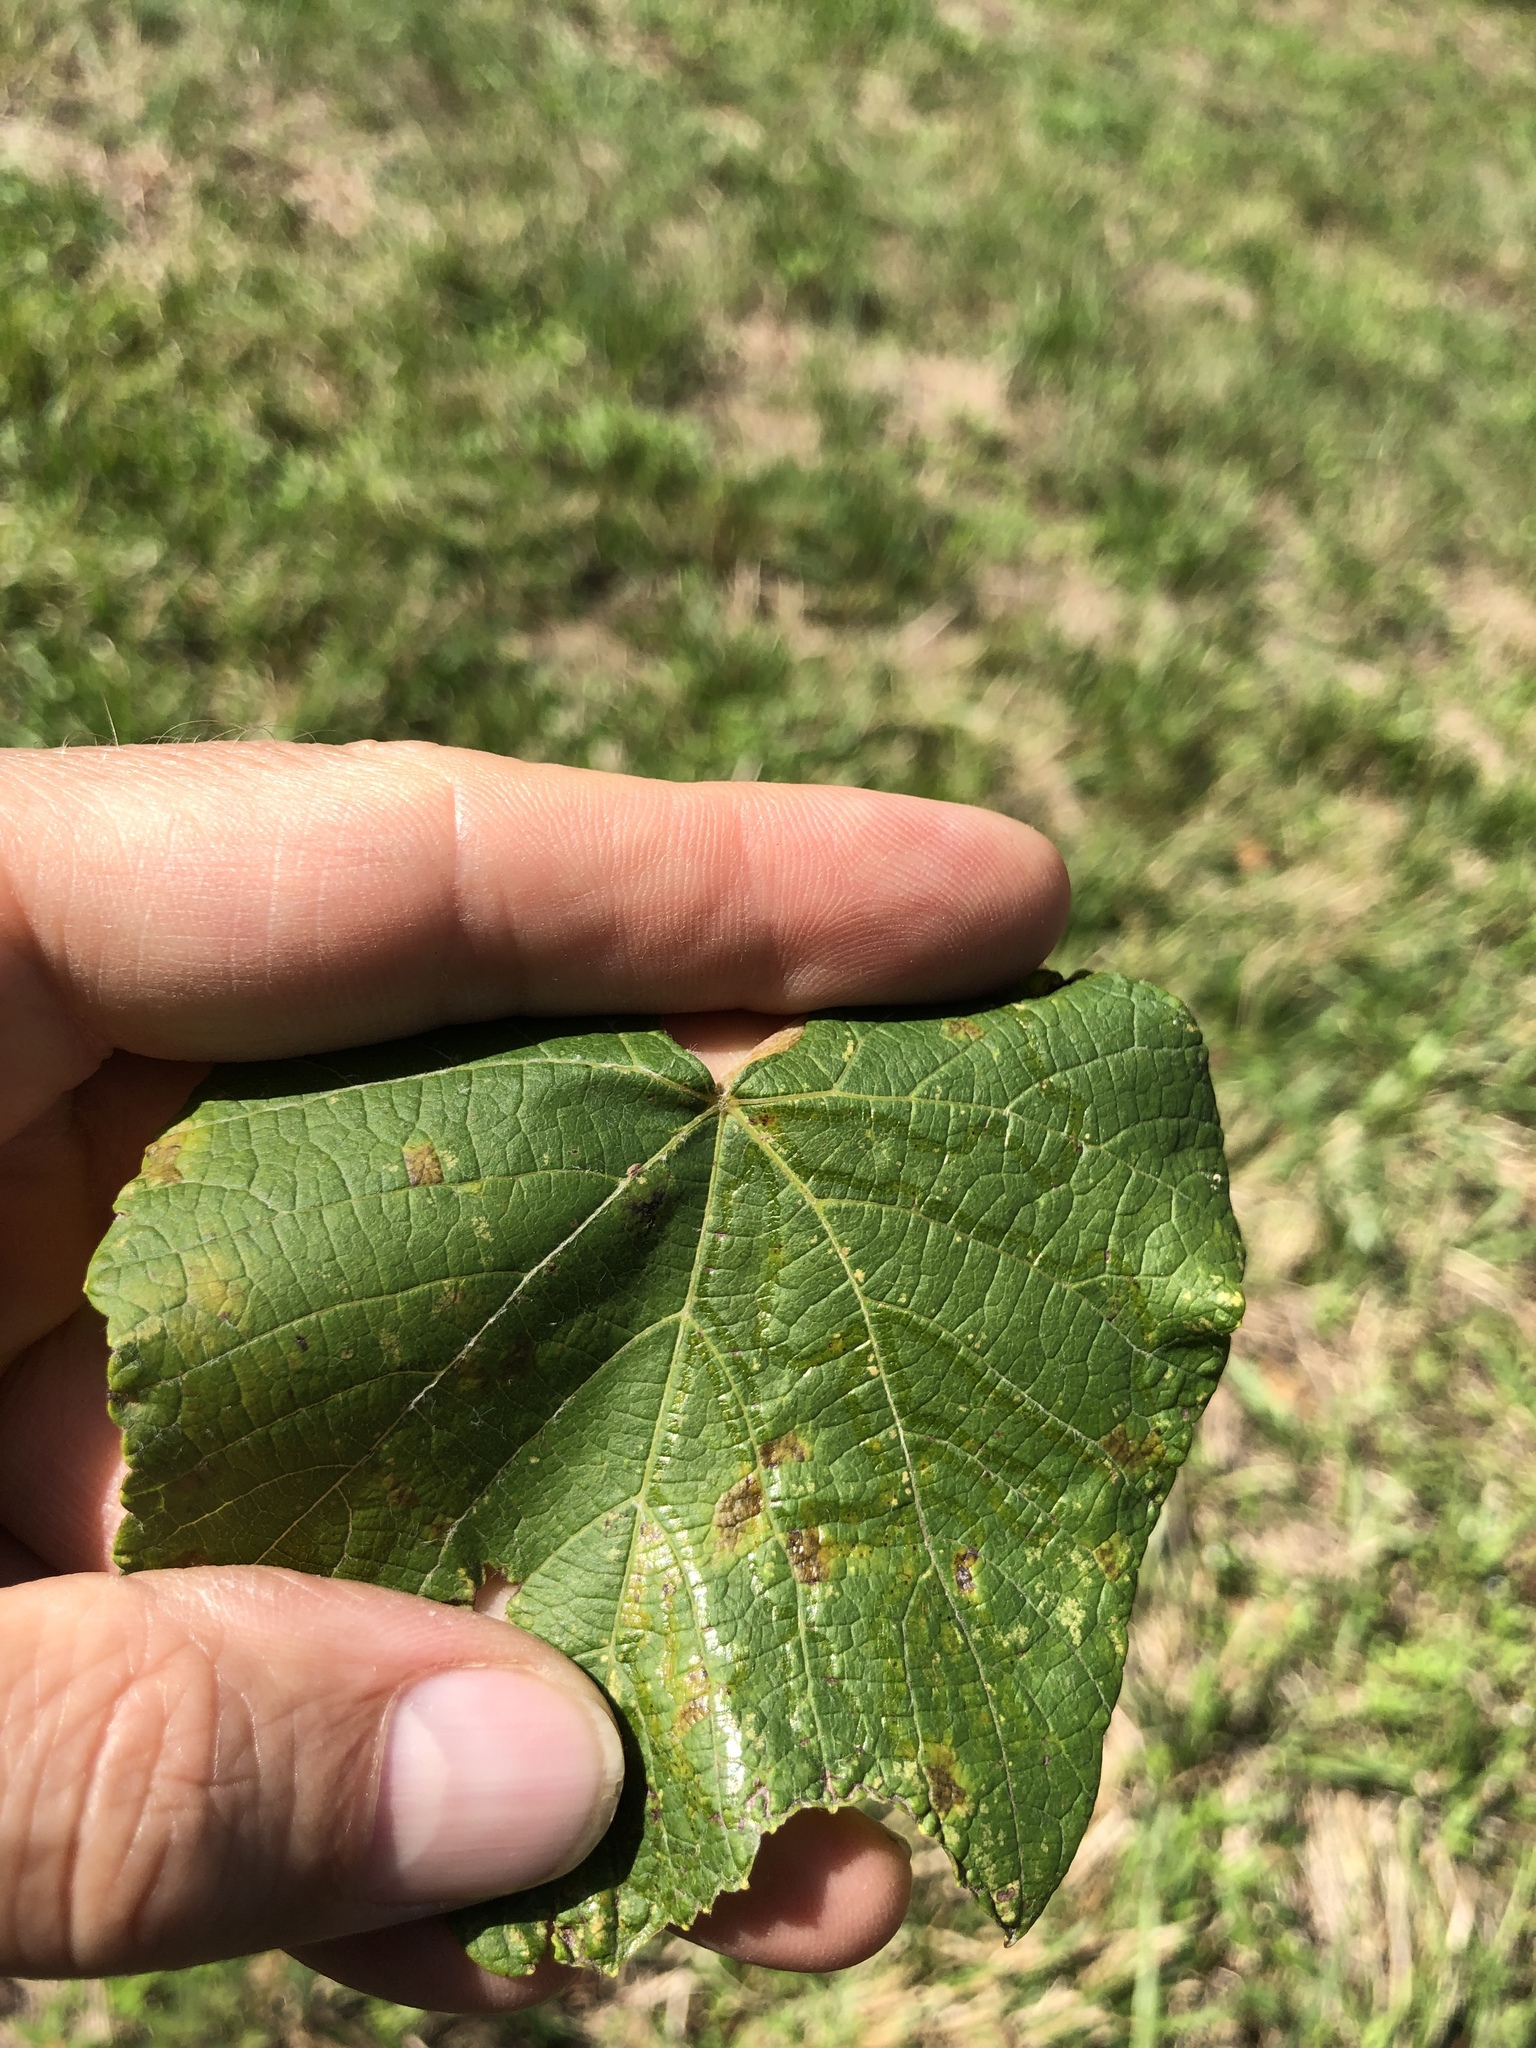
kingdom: Animalia
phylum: Arthropoda
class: Insecta
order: Lepidoptera
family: Gracillariidae
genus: Phyllocnistis
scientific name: Phyllocnistis vitegenella
